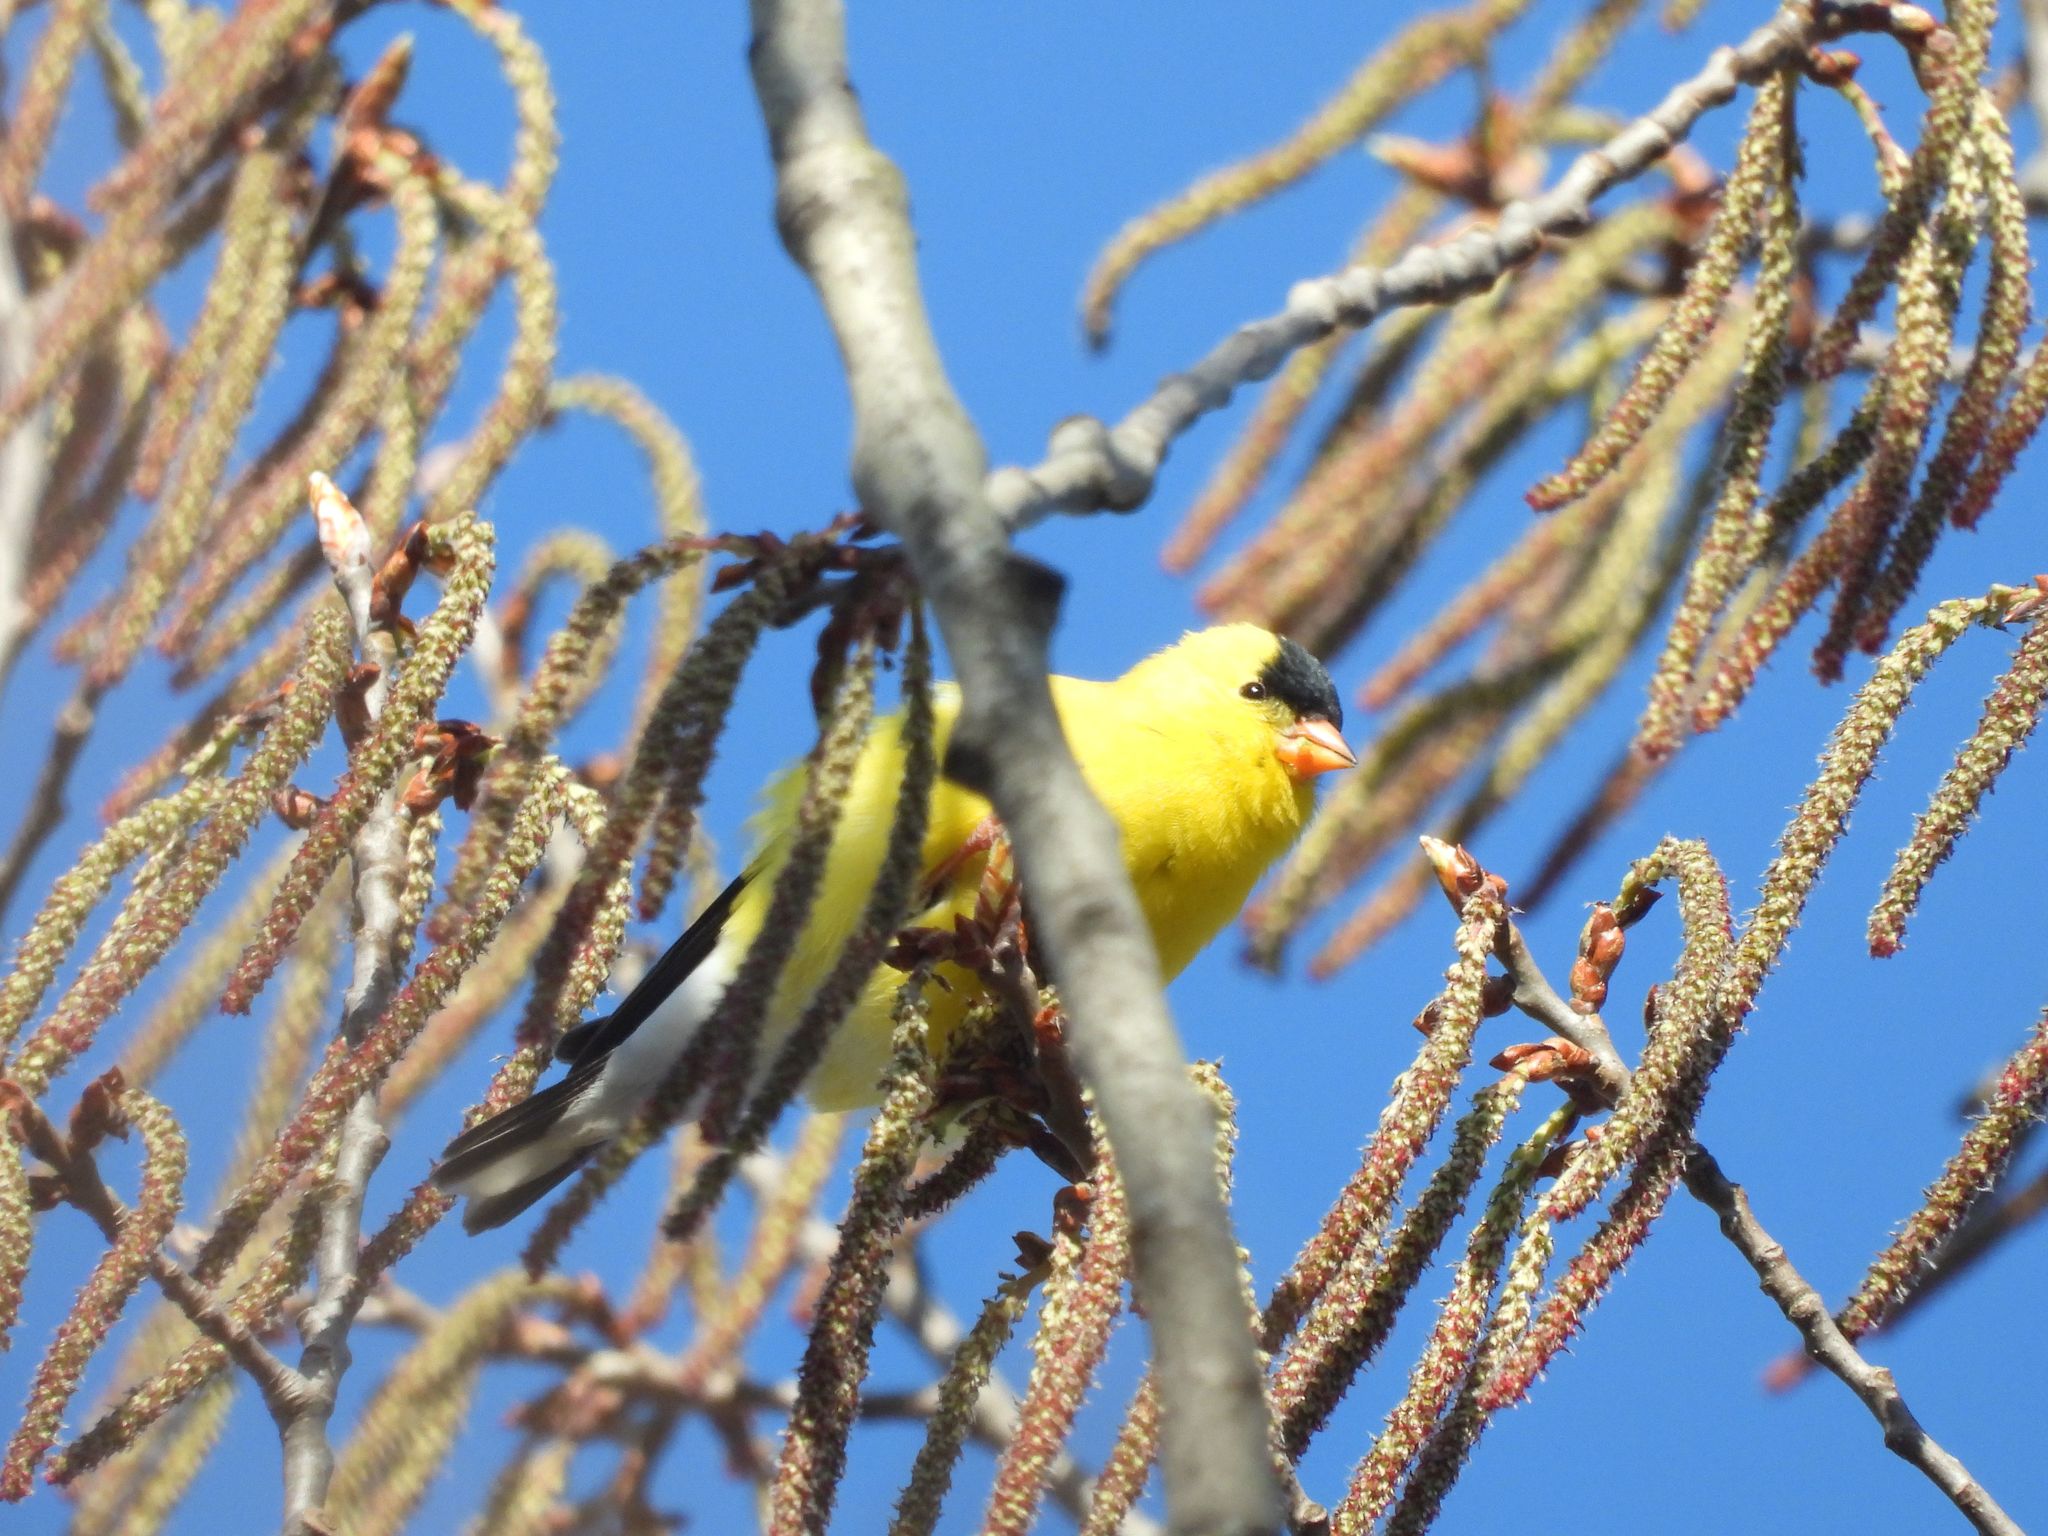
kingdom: Animalia
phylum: Chordata
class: Aves
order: Passeriformes
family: Fringillidae
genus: Spinus
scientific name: Spinus tristis
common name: American goldfinch
